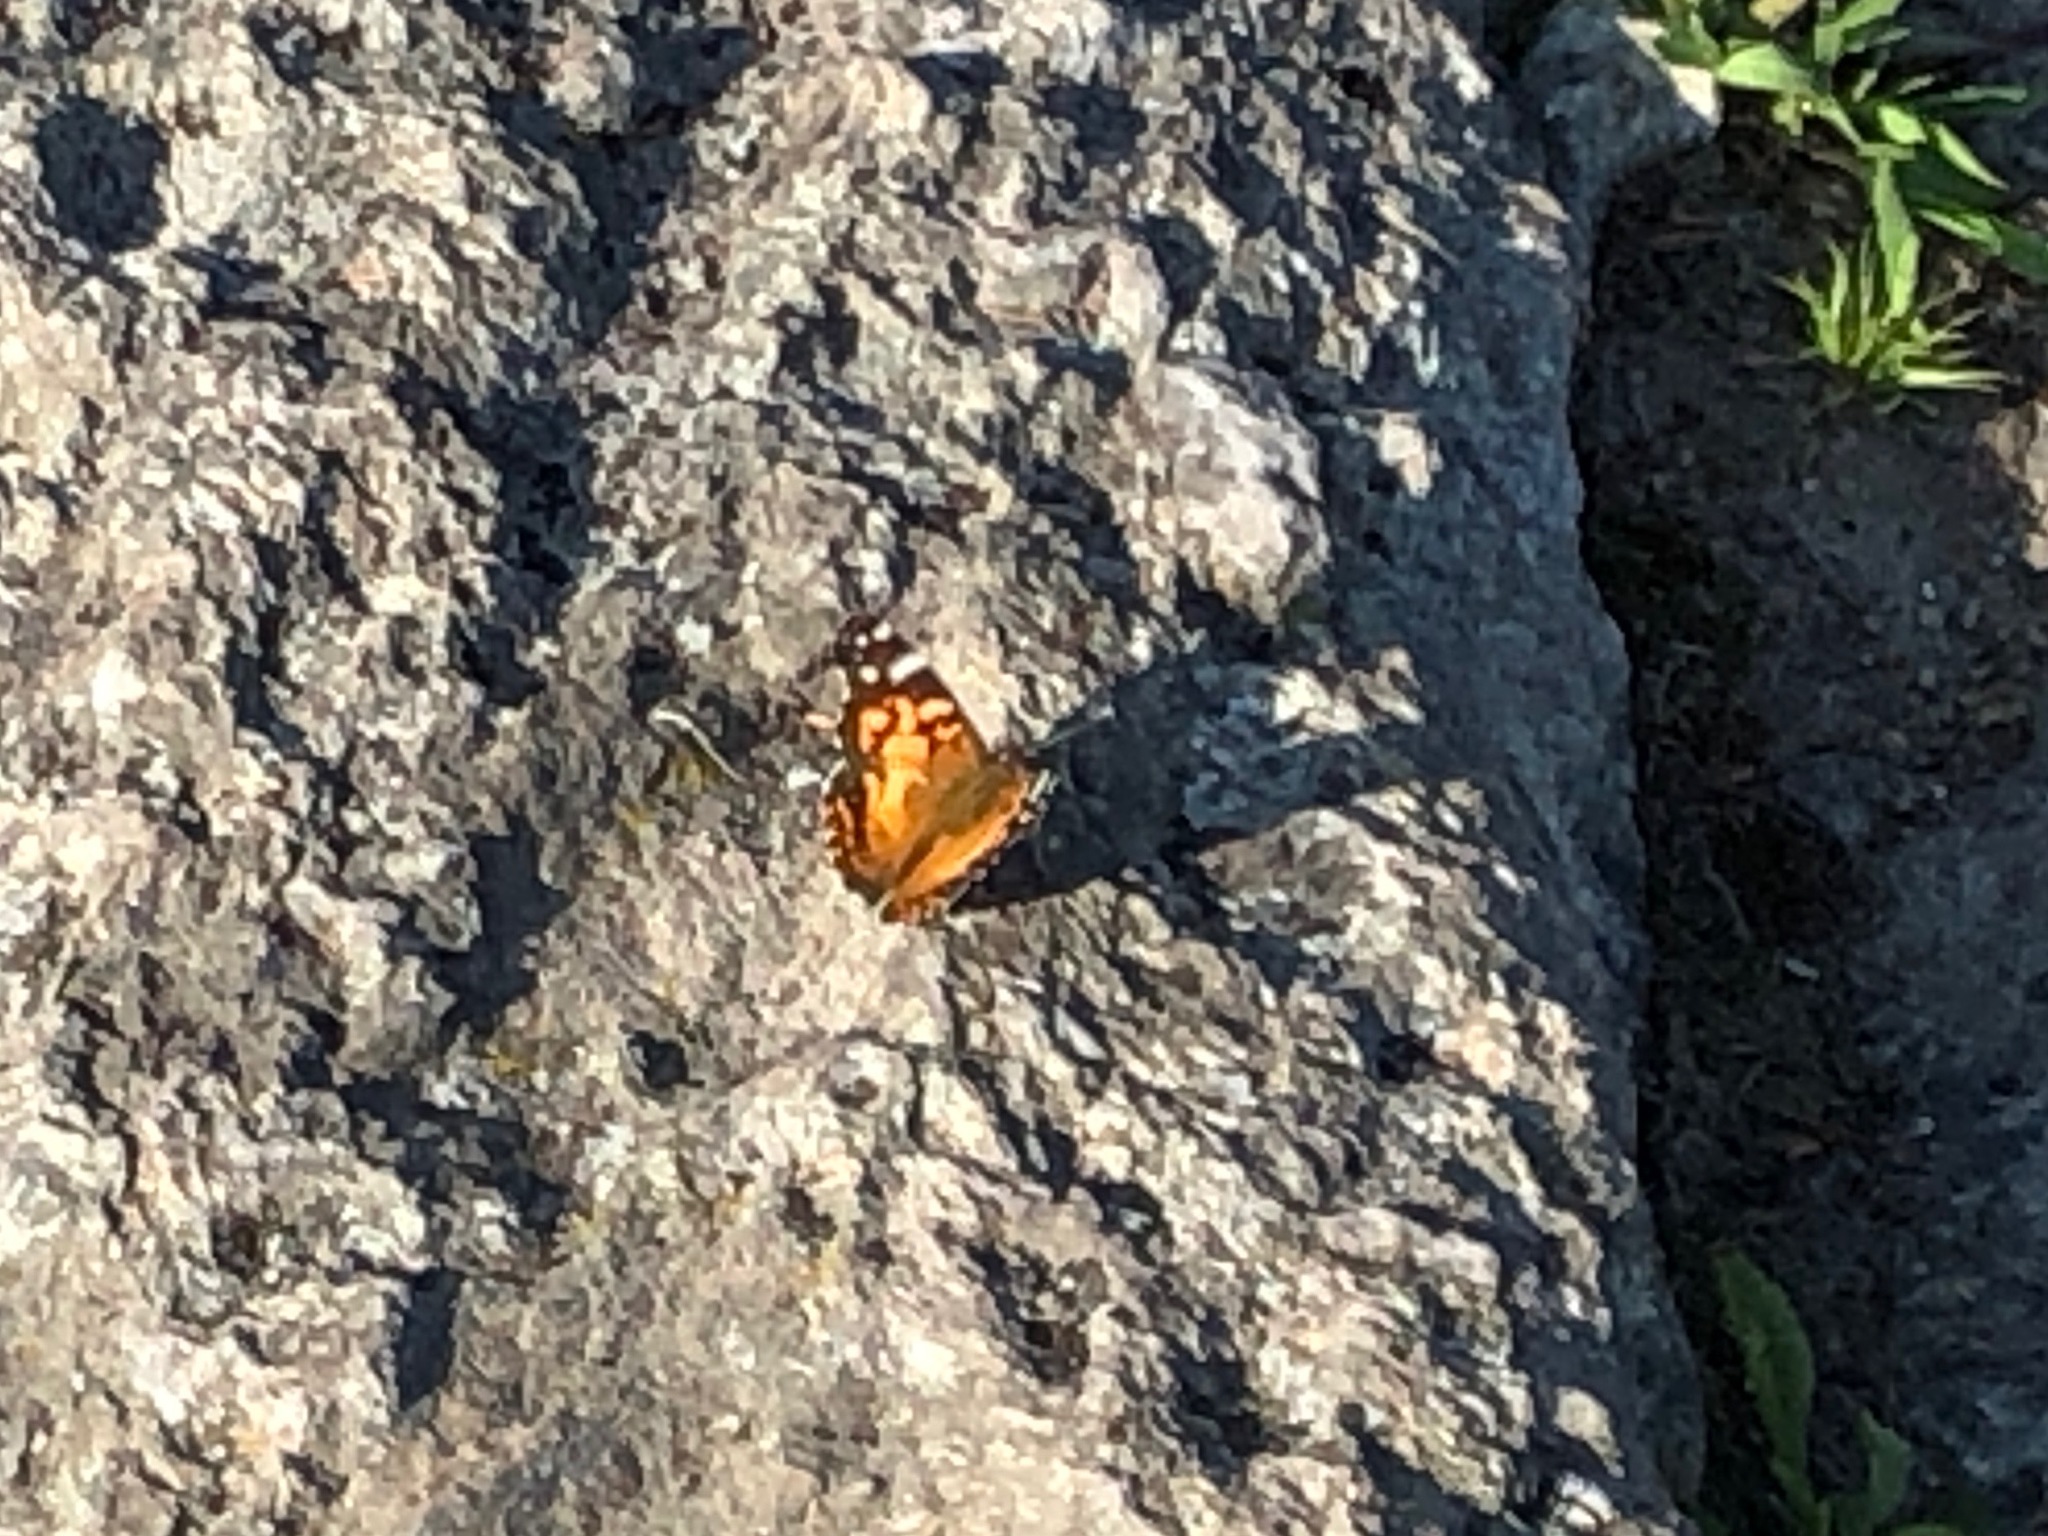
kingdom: Animalia
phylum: Arthropoda
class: Insecta
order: Lepidoptera
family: Nymphalidae
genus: Vanessa
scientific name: Vanessa virginiensis
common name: American lady
